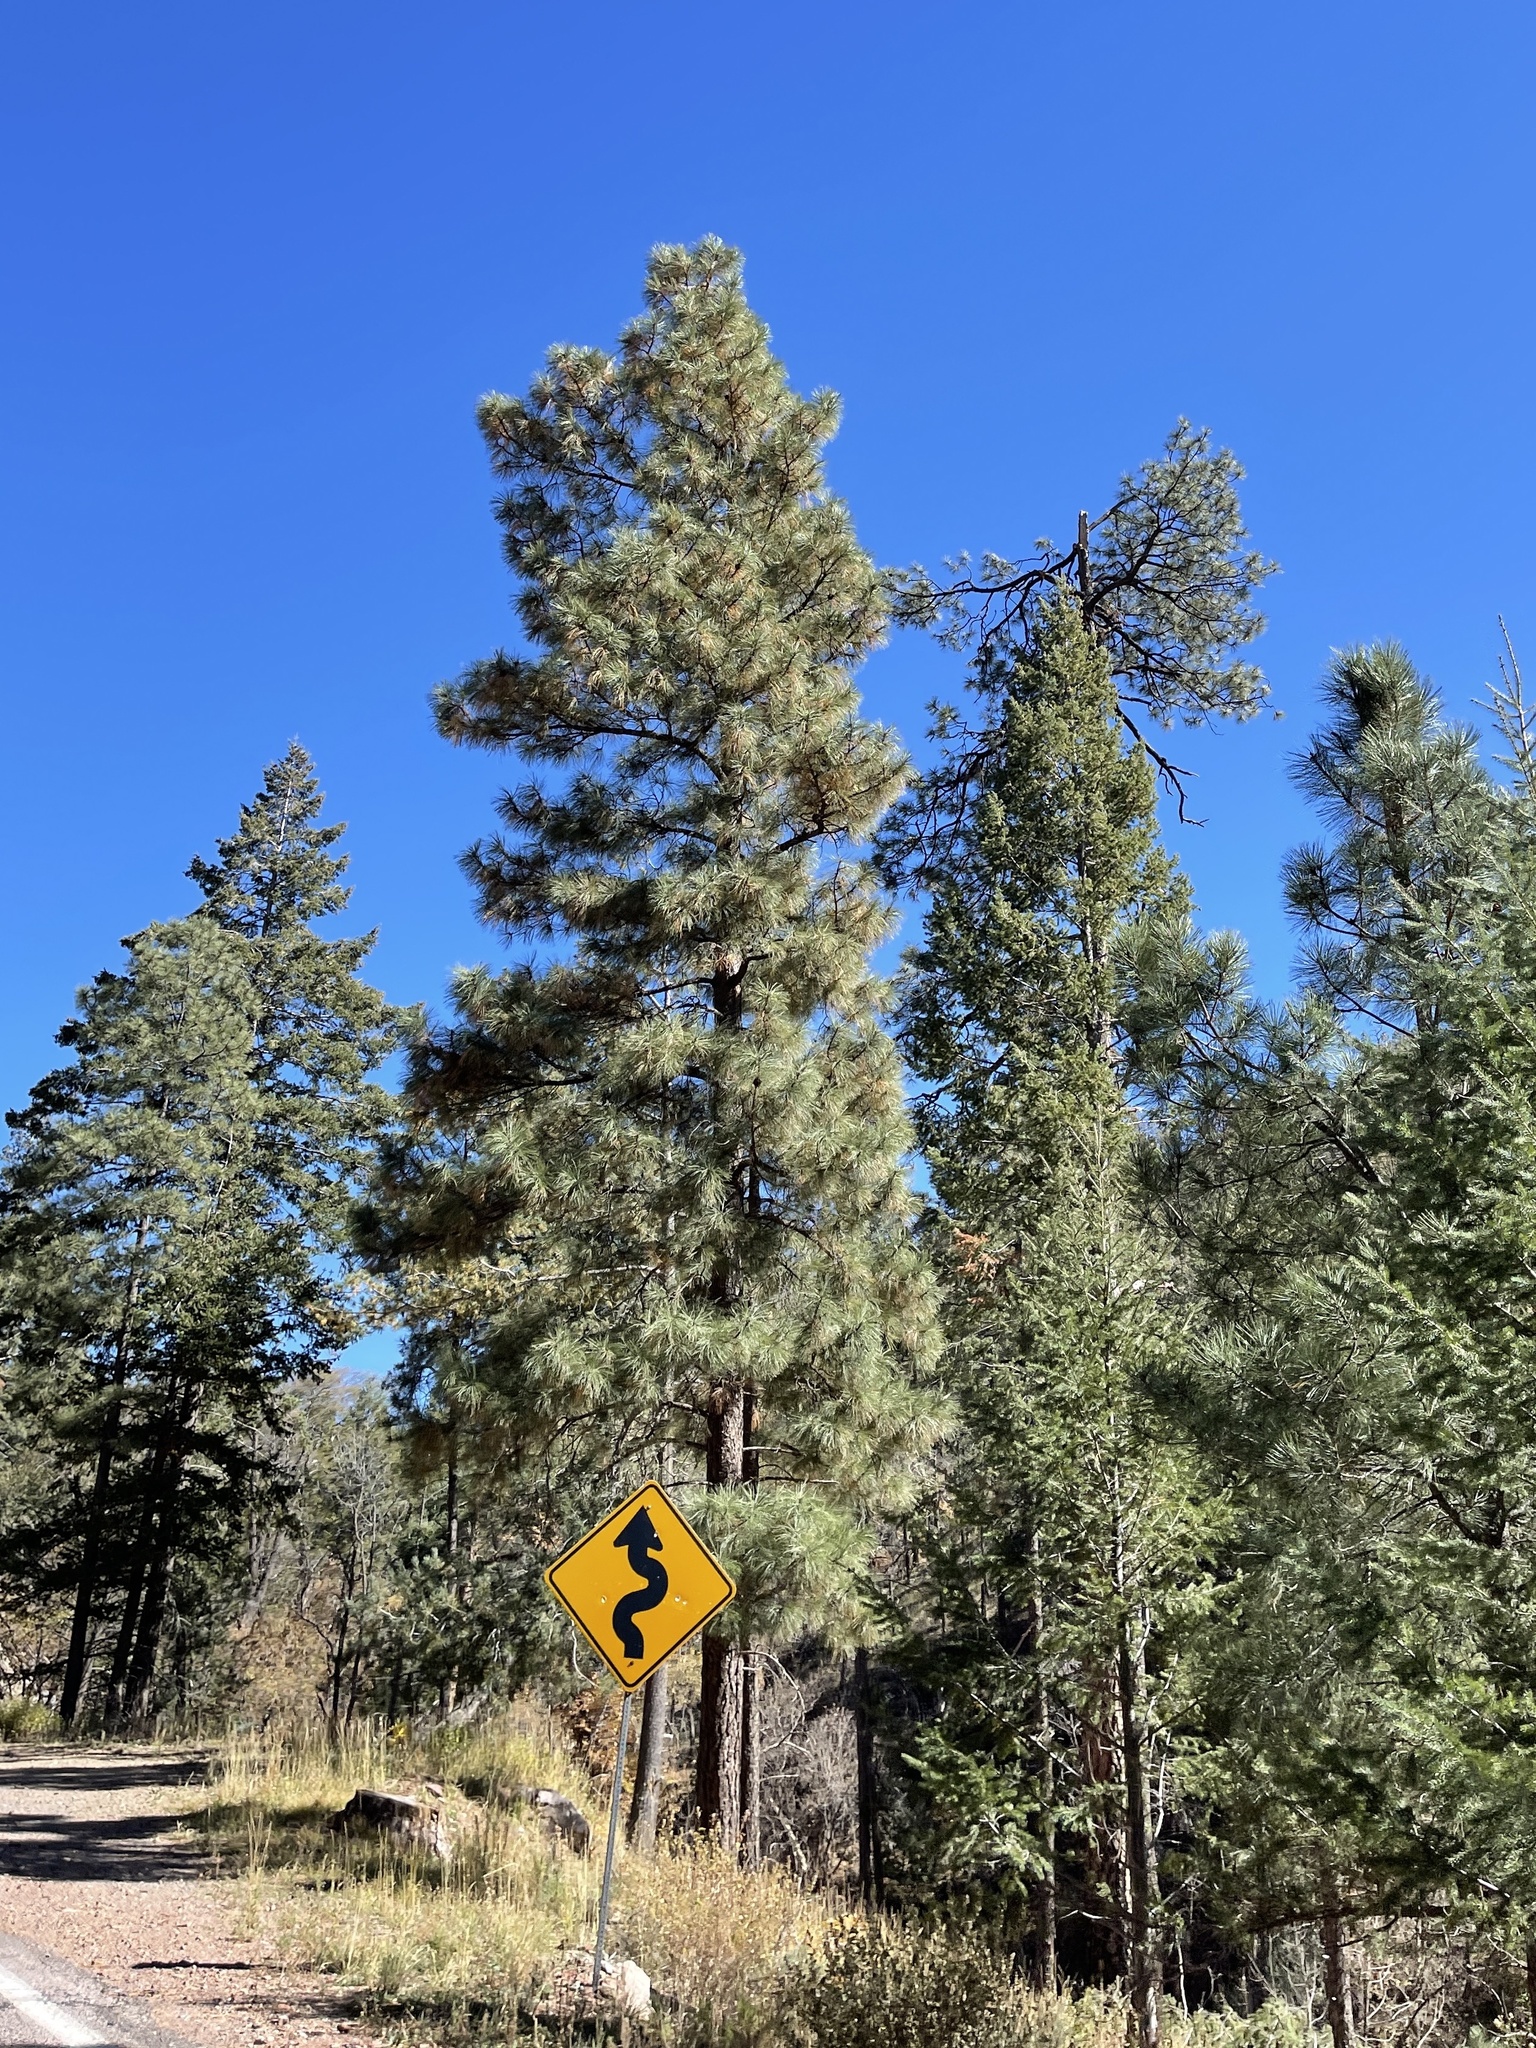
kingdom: Plantae
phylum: Tracheophyta
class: Pinopsida
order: Pinales
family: Pinaceae
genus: Pinus
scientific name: Pinus ponderosa
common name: Western yellow-pine
